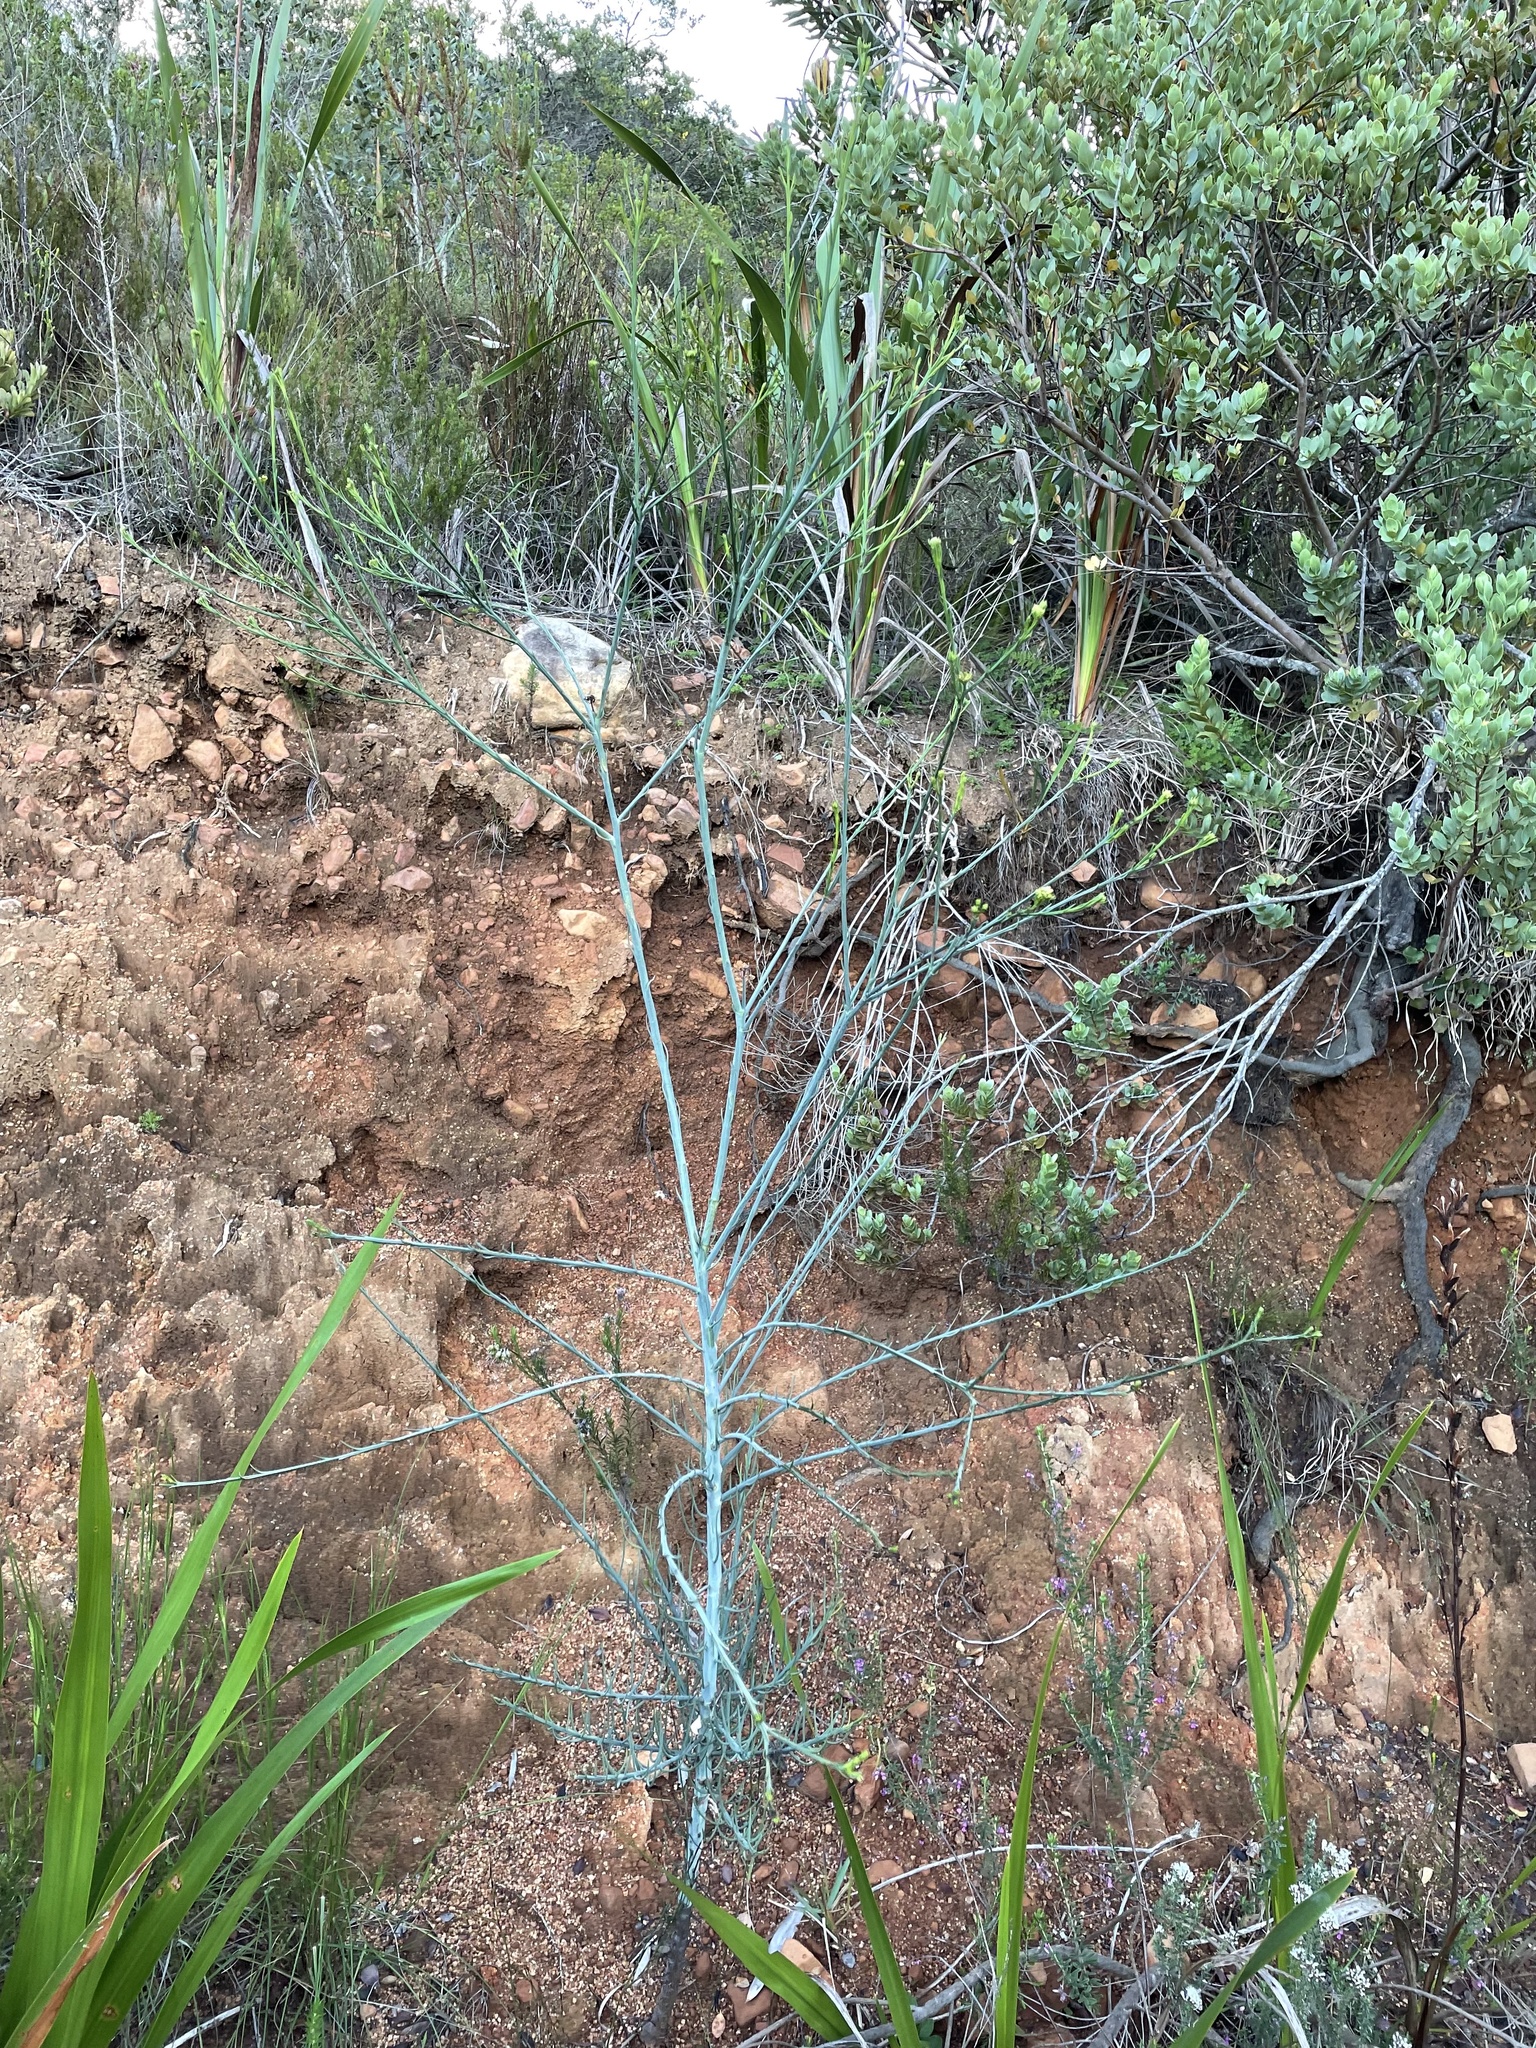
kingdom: Plantae
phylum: Tracheophyta
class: Magnoliopsida
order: Santalales
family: Thesiaceae
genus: Thesium
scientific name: Thesium strictum
